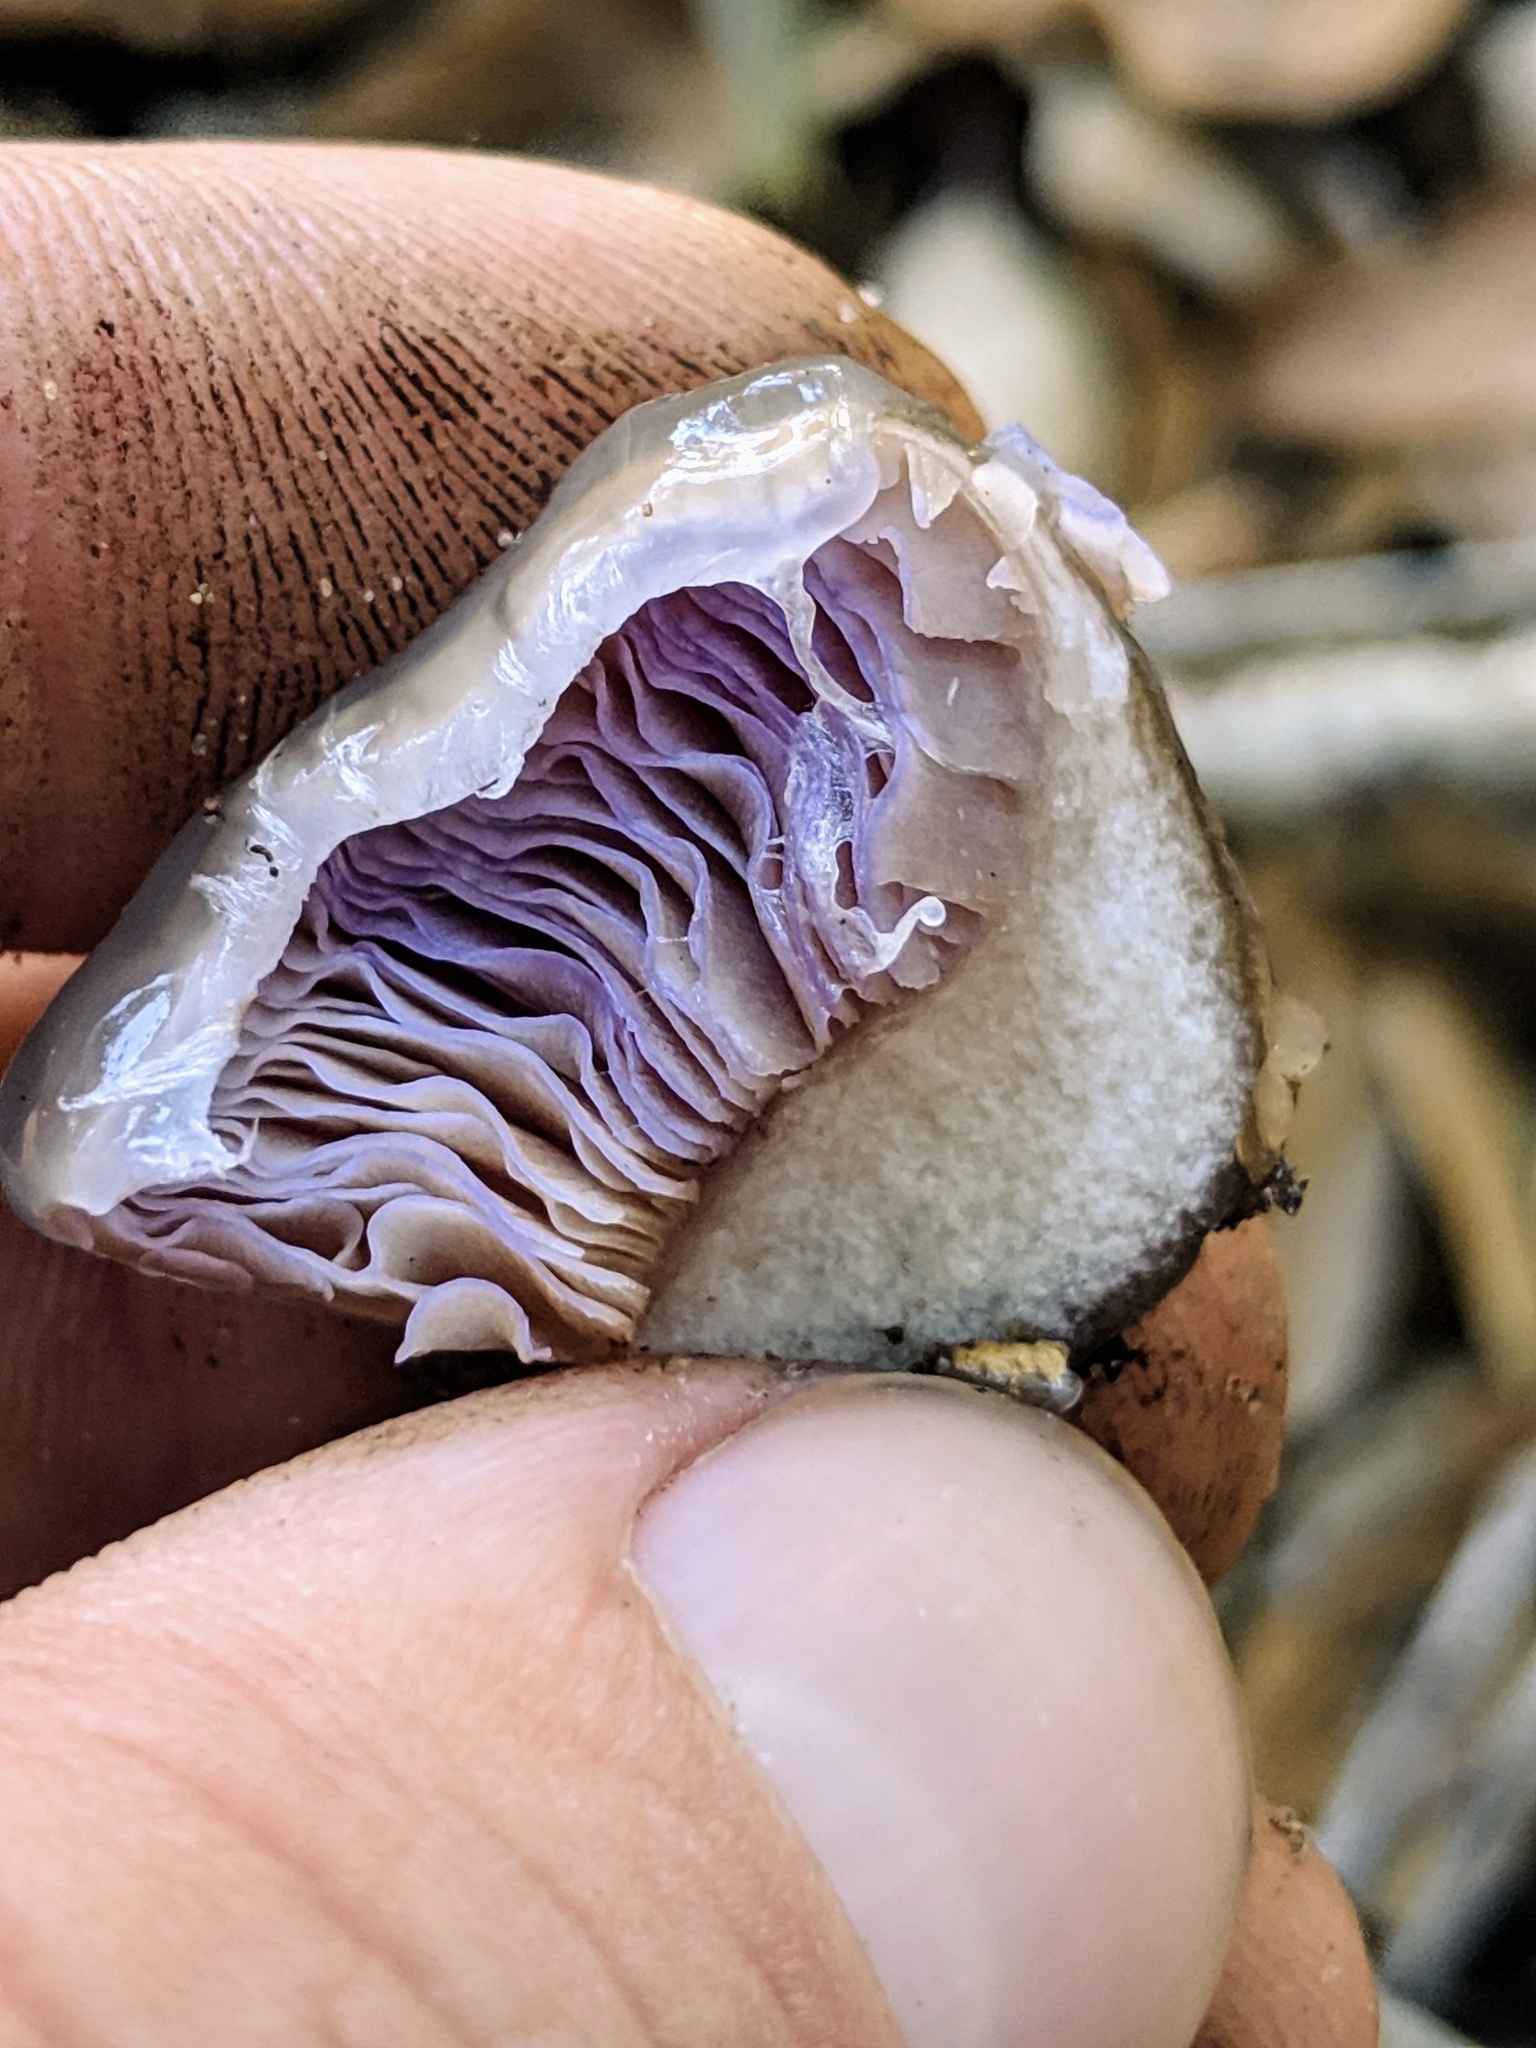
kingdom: Fungi
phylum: Basidiomycota
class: Agaricomycetes
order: Agaricales
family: Cortinariaceae
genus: Cortinarius
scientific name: Cortinarius glutinosoarmillatus
